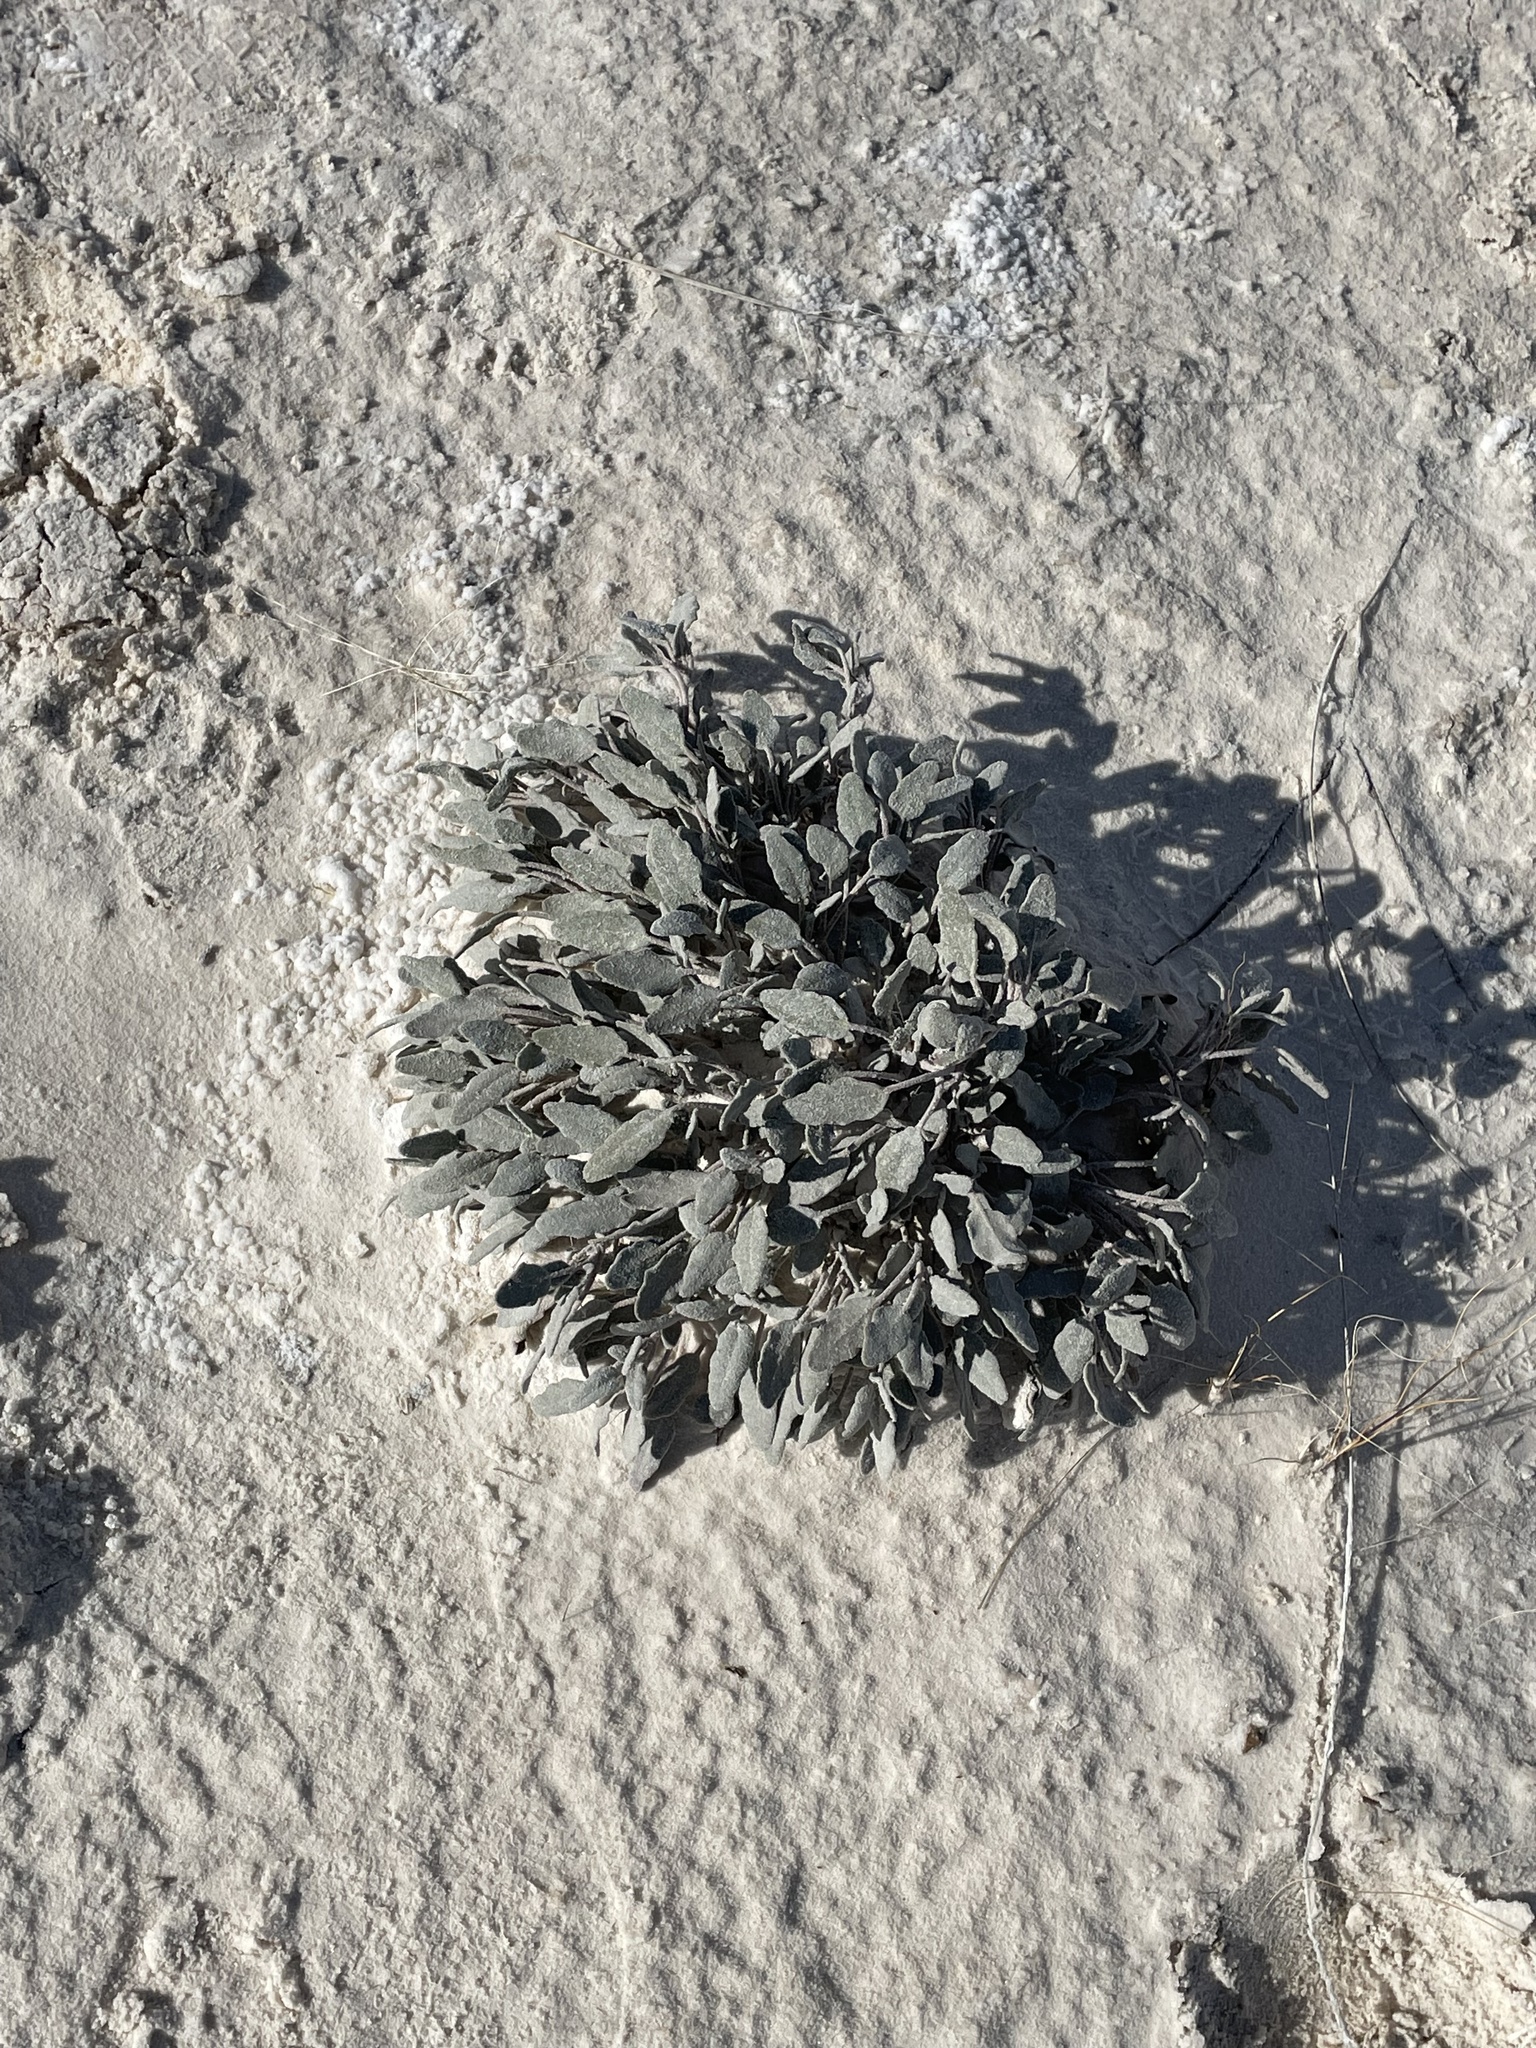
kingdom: Plantae
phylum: Tracheophyta
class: Magnoliopsida
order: Caryophyllales
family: Nyctaginaceae
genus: Abronia
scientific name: Abronia angustifolia
